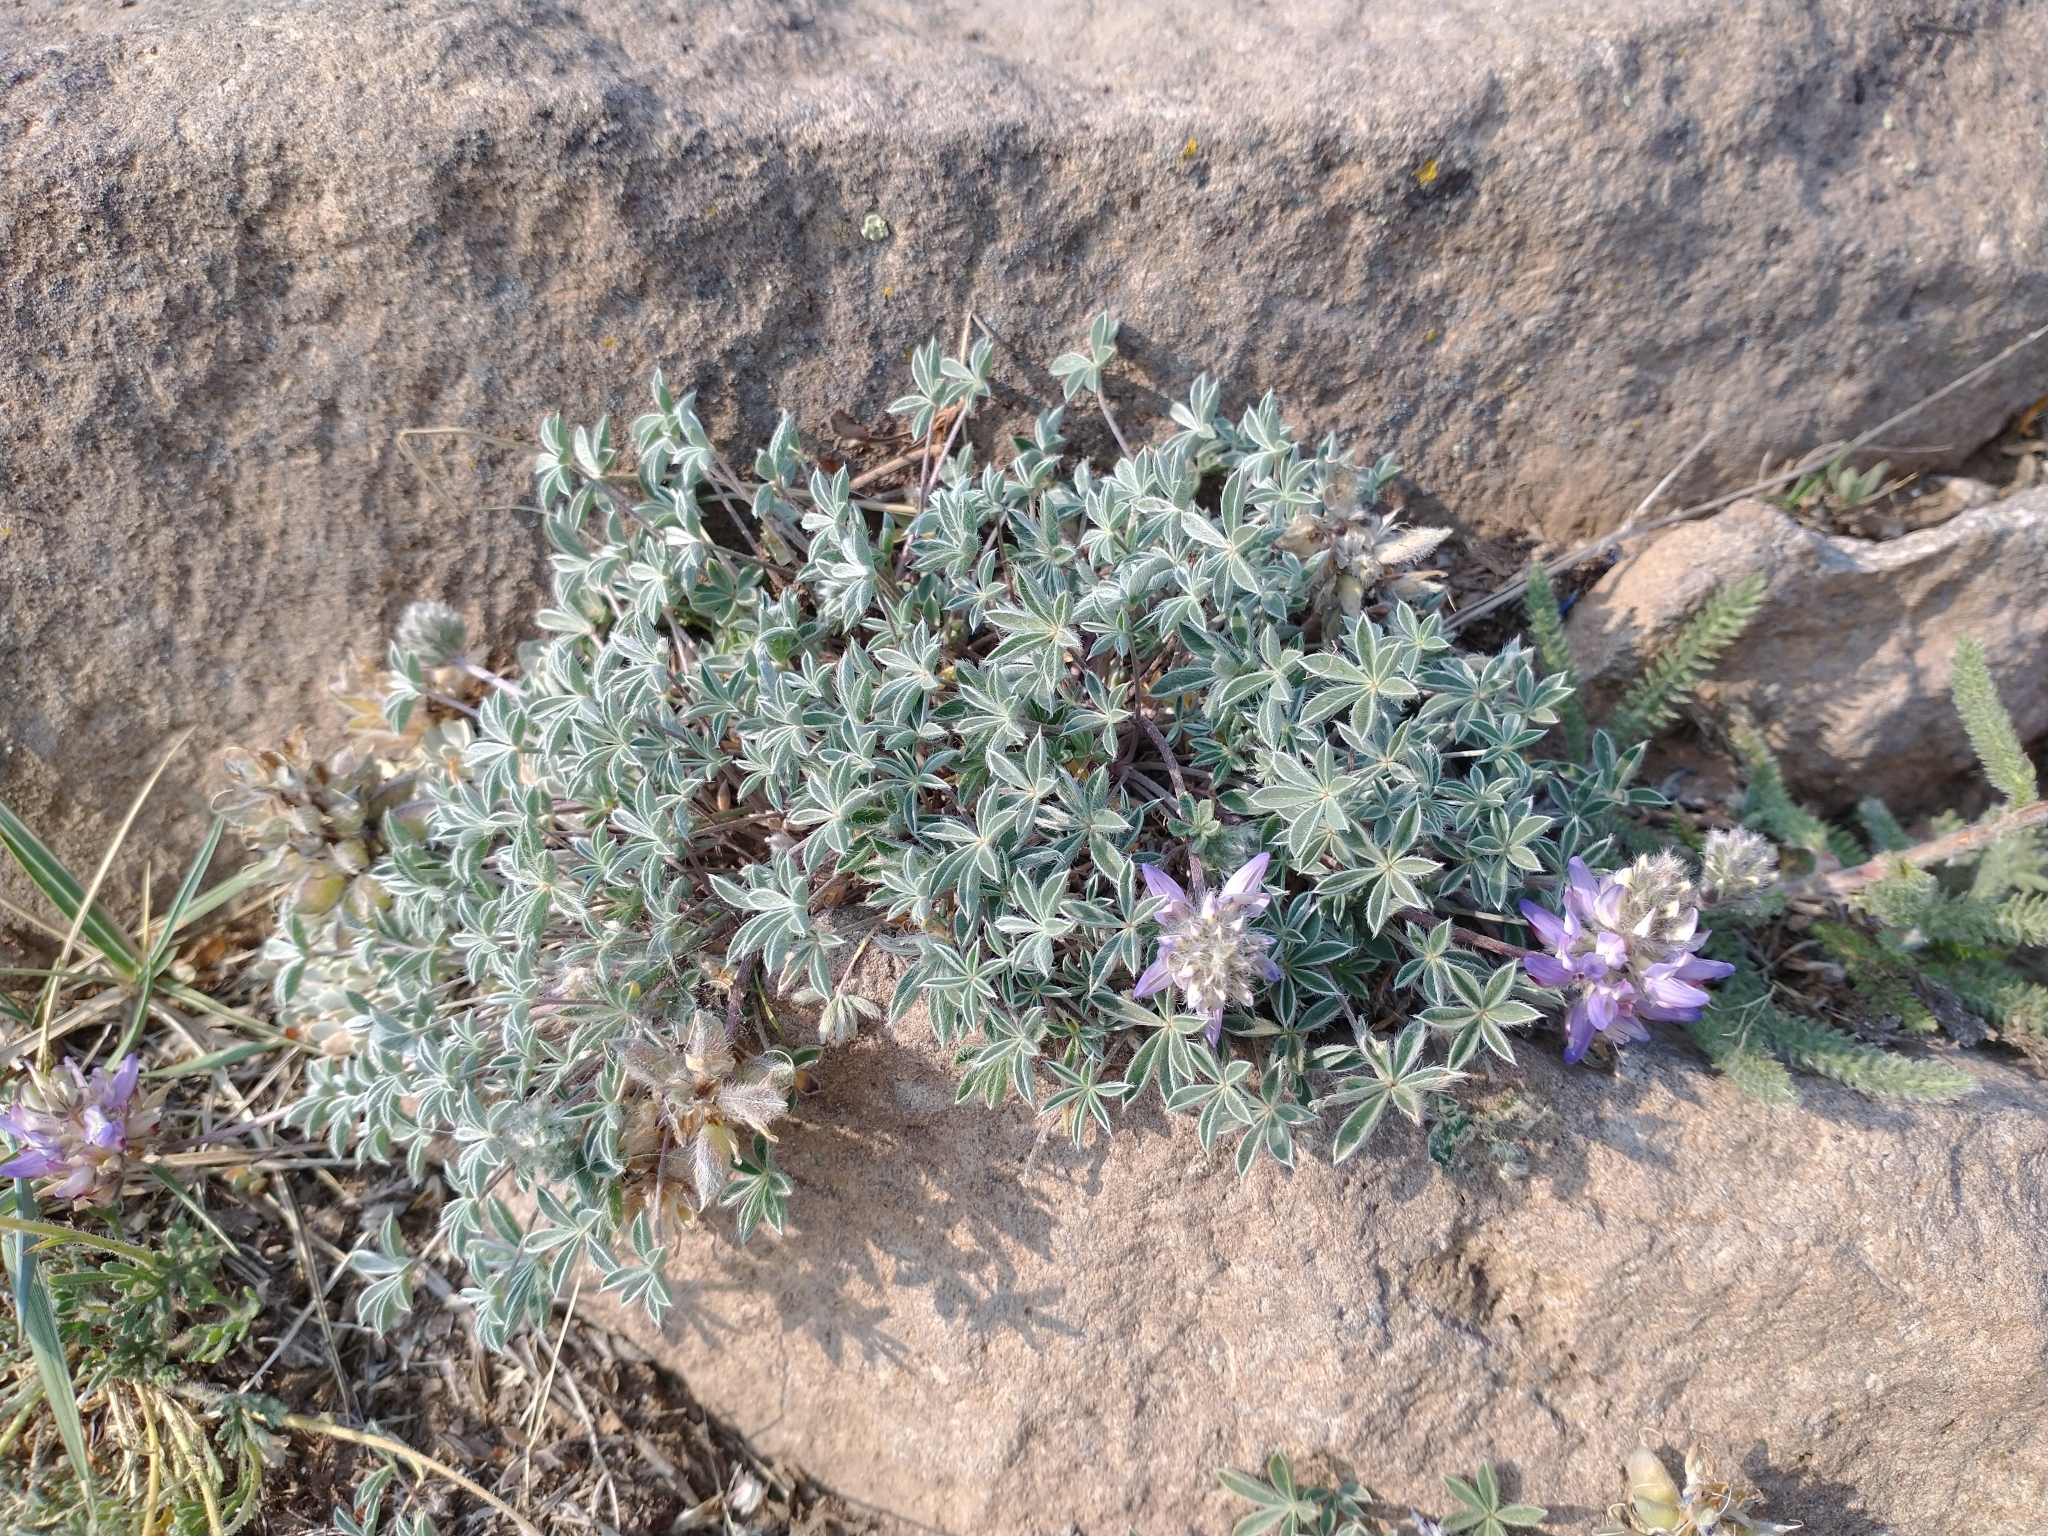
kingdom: Plantae
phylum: Tracheophyta
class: Magnoliopsida
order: Fabales
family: Fabaceae
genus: Lupinus
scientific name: Lupinus lepidus
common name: Prairie lupine
